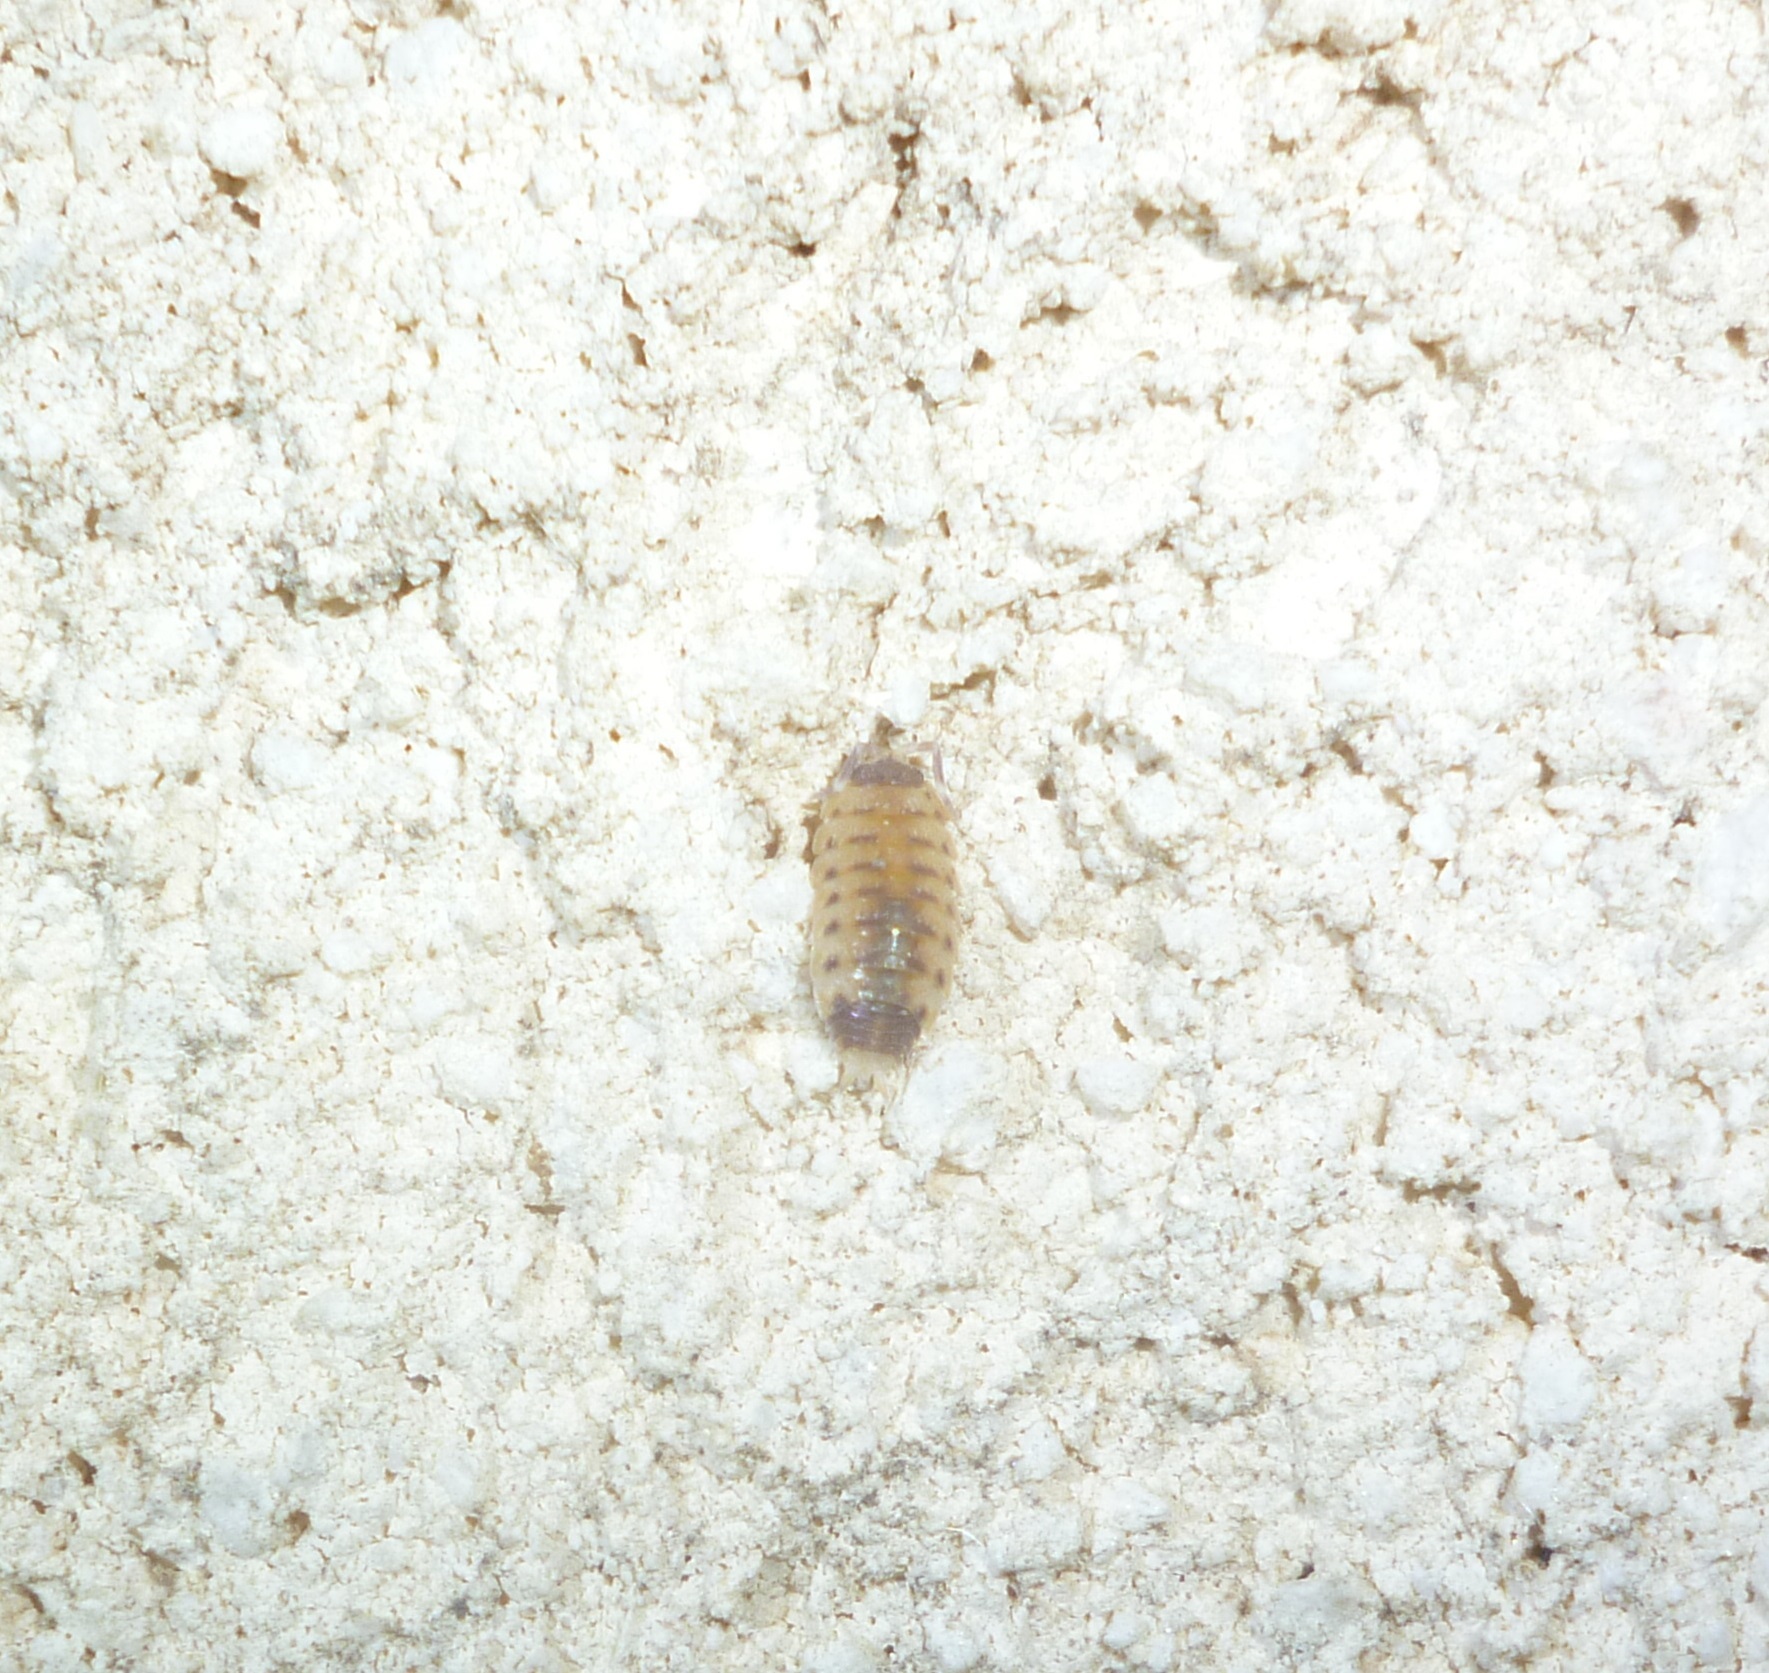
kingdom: Animalia
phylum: Arthropoda
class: Malacostraca
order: Isopoda
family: Porcellionidae
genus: Proporcellio
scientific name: Proporcellio vulcanius
